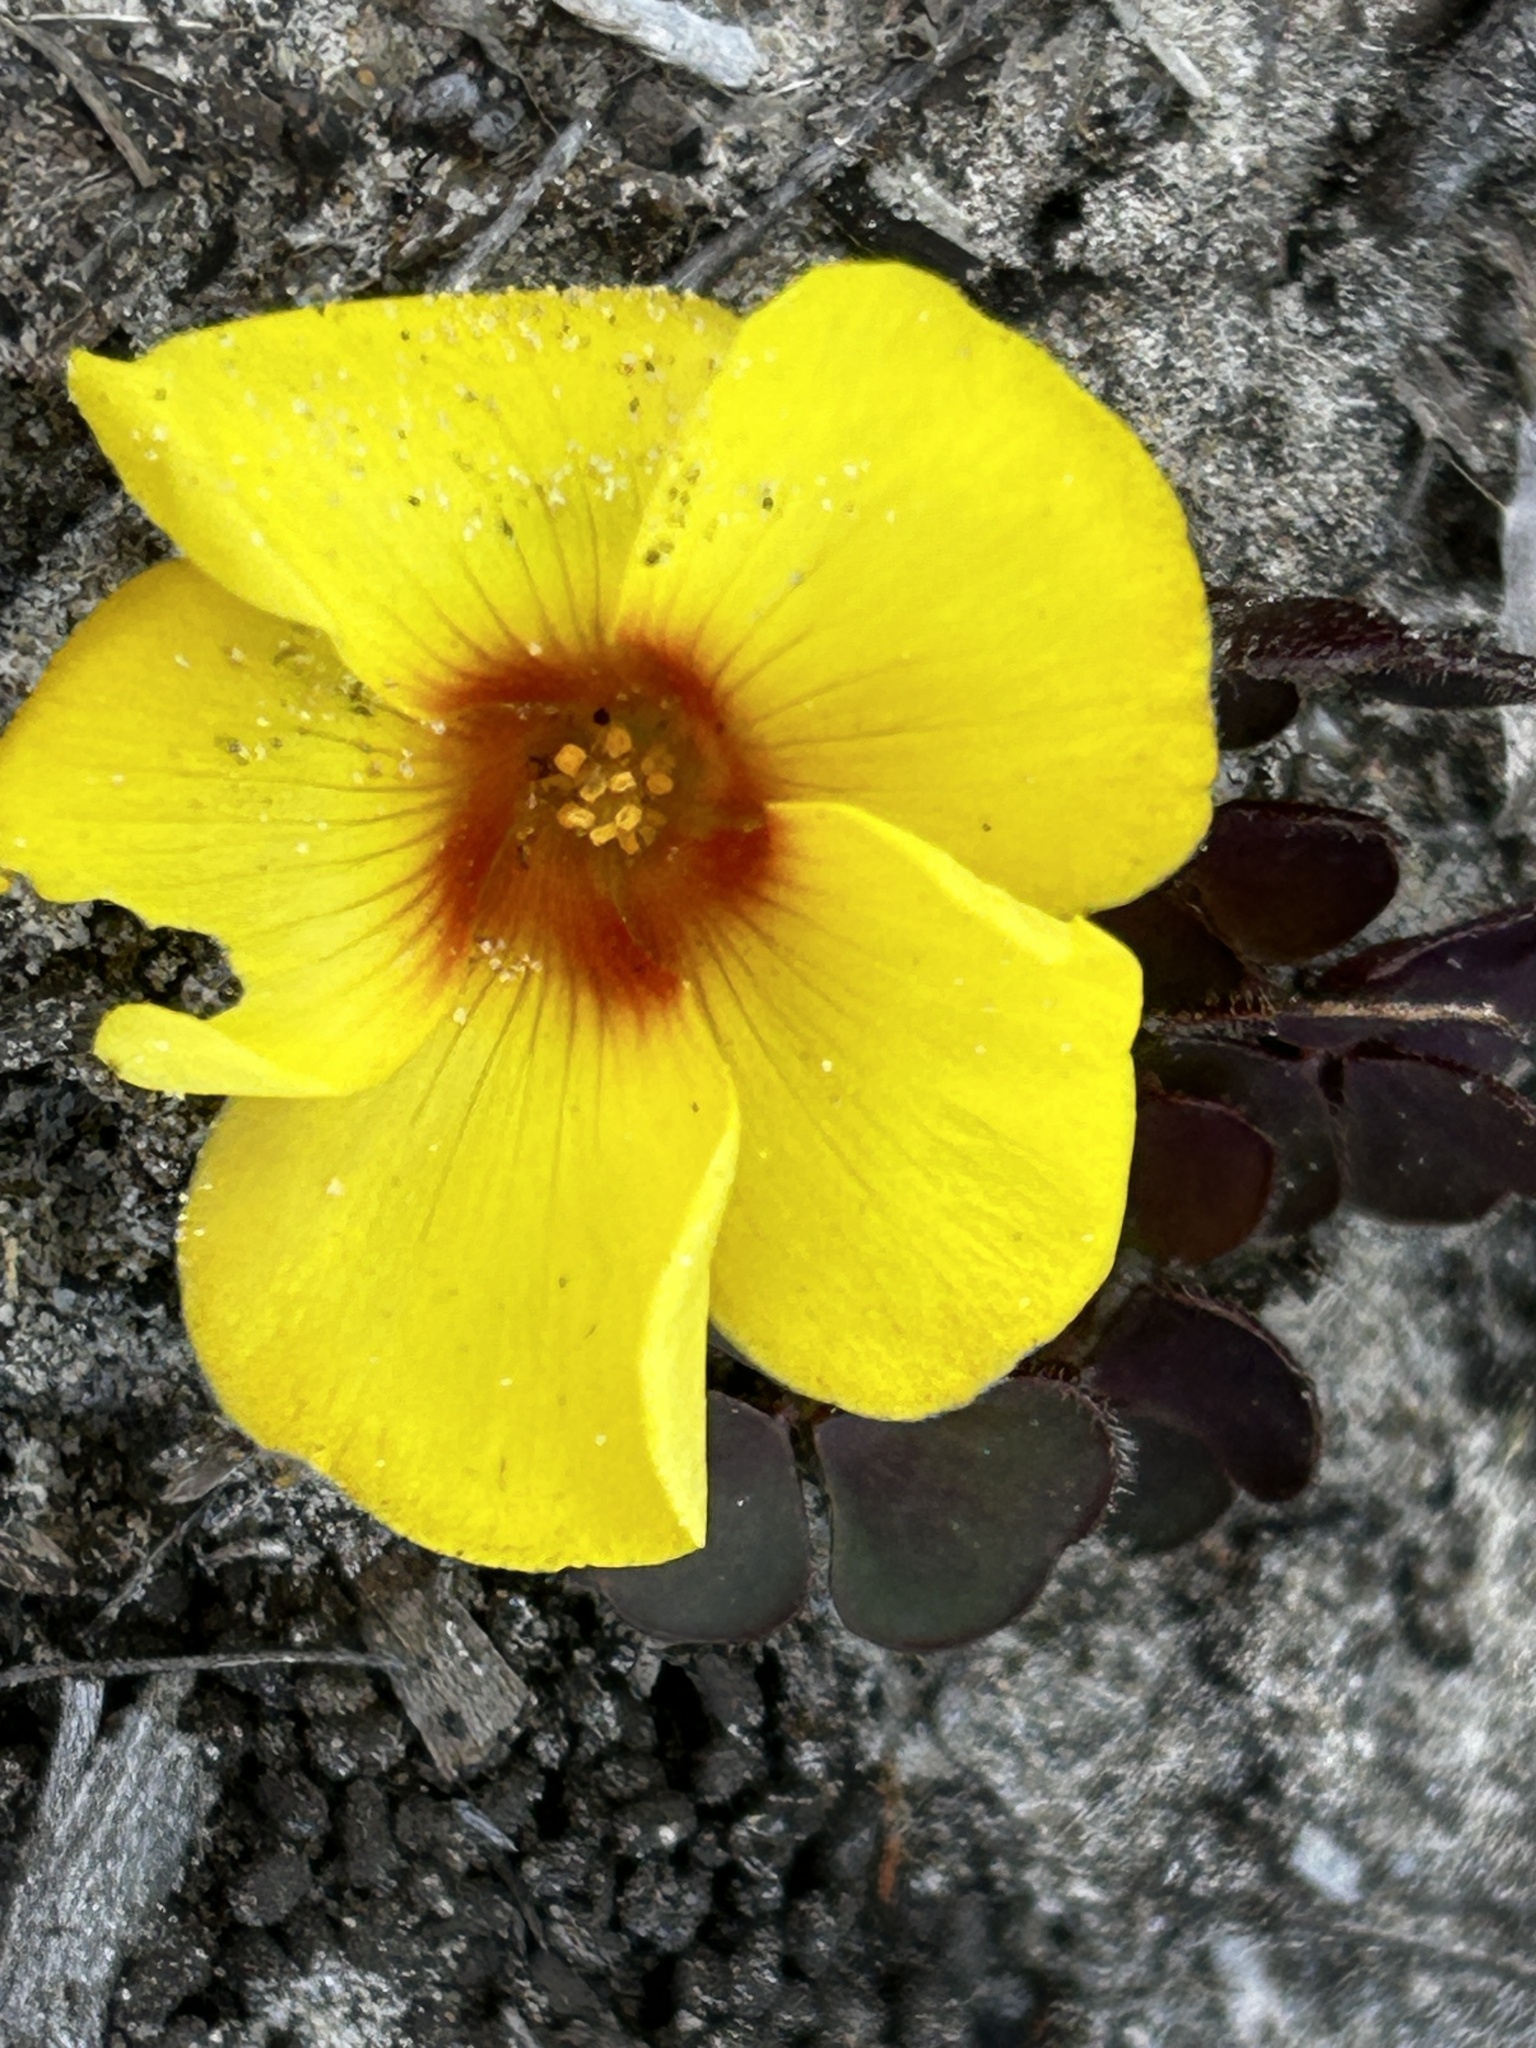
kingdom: Plantae
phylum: Tracheophyta
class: Magnoliopsida
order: Oxalidales
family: Oxalidaceae
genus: Oxalis
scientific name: Oxalis luteola
